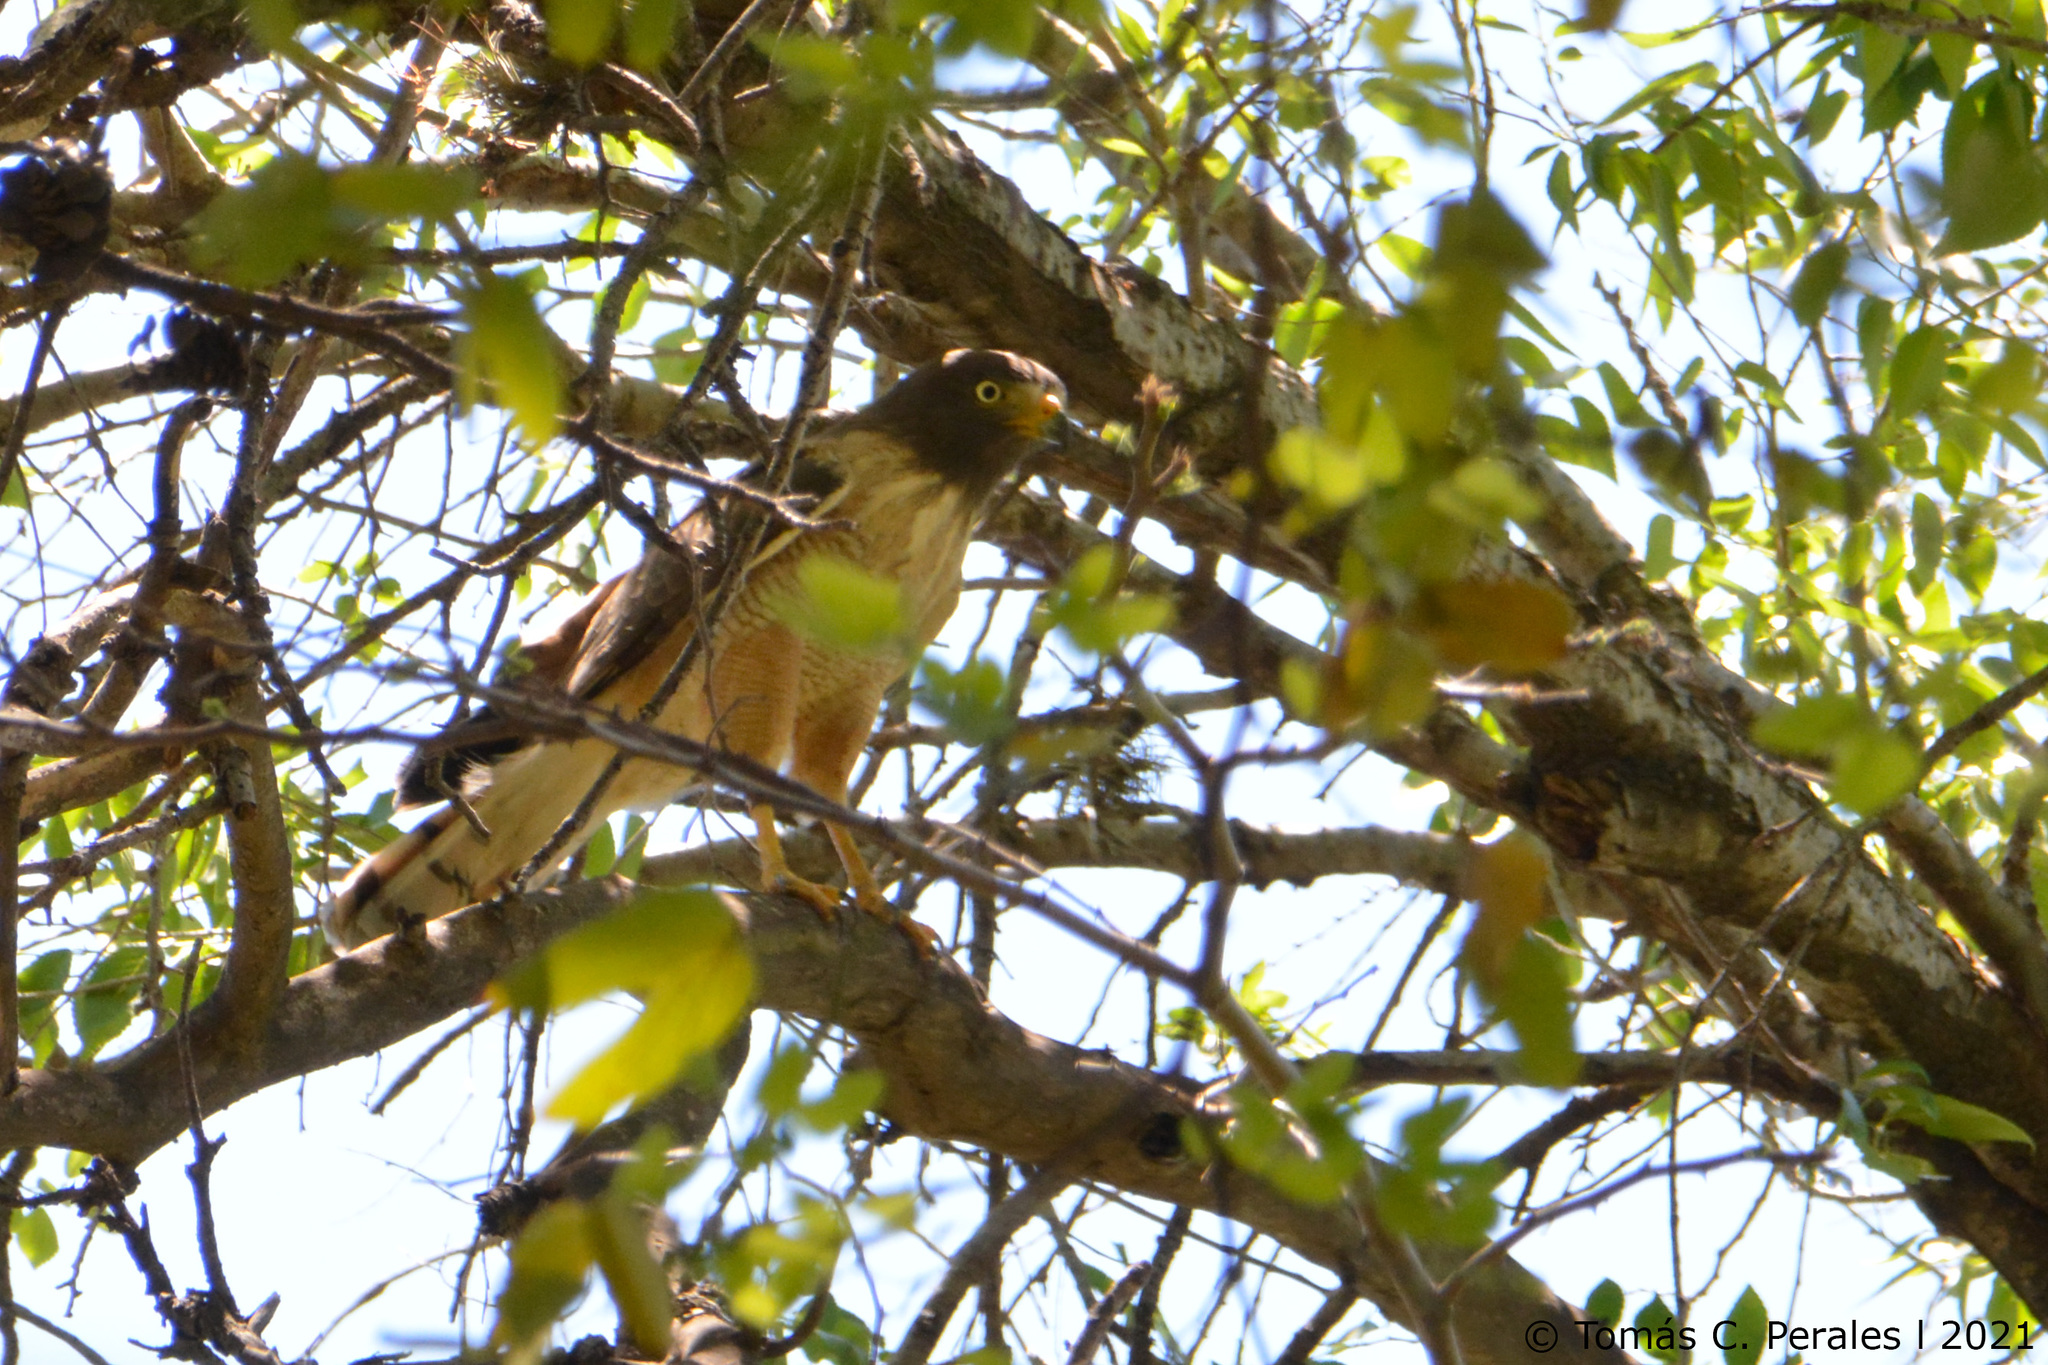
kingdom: Animalia
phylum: Chordata
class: Aves
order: Accipitriformes
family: Accipitridae
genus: Rupornis
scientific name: Rupornis magnirostris
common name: Roadside hawk
